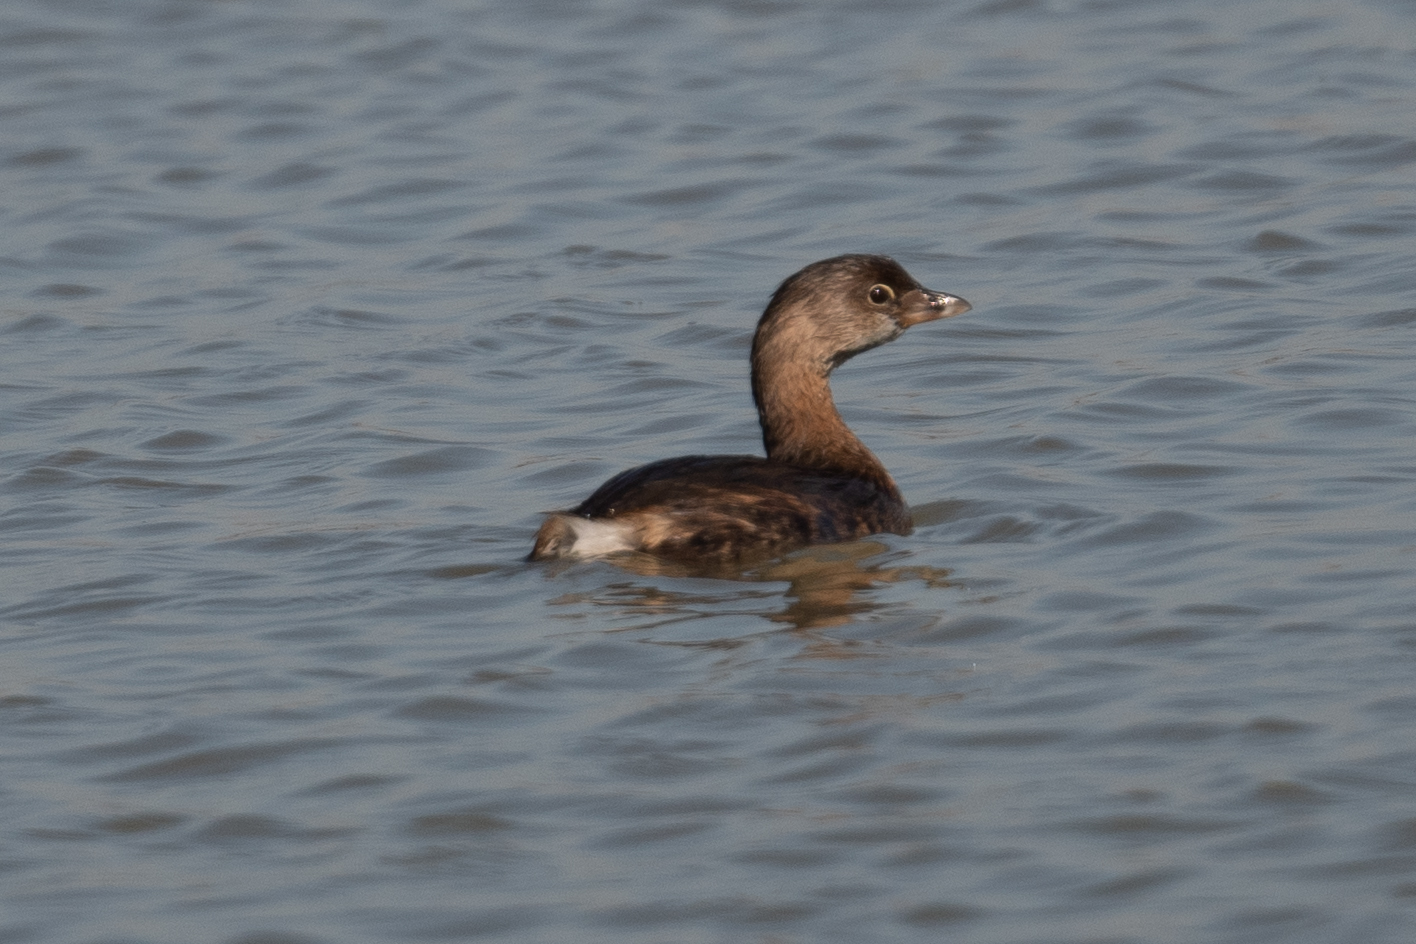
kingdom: Animalia
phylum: Chordata
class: Aves
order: Podicipediformes
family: Podicipedidae
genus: Podilymbus
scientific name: Podilymbus podiceps
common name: Pied-billed grebe
